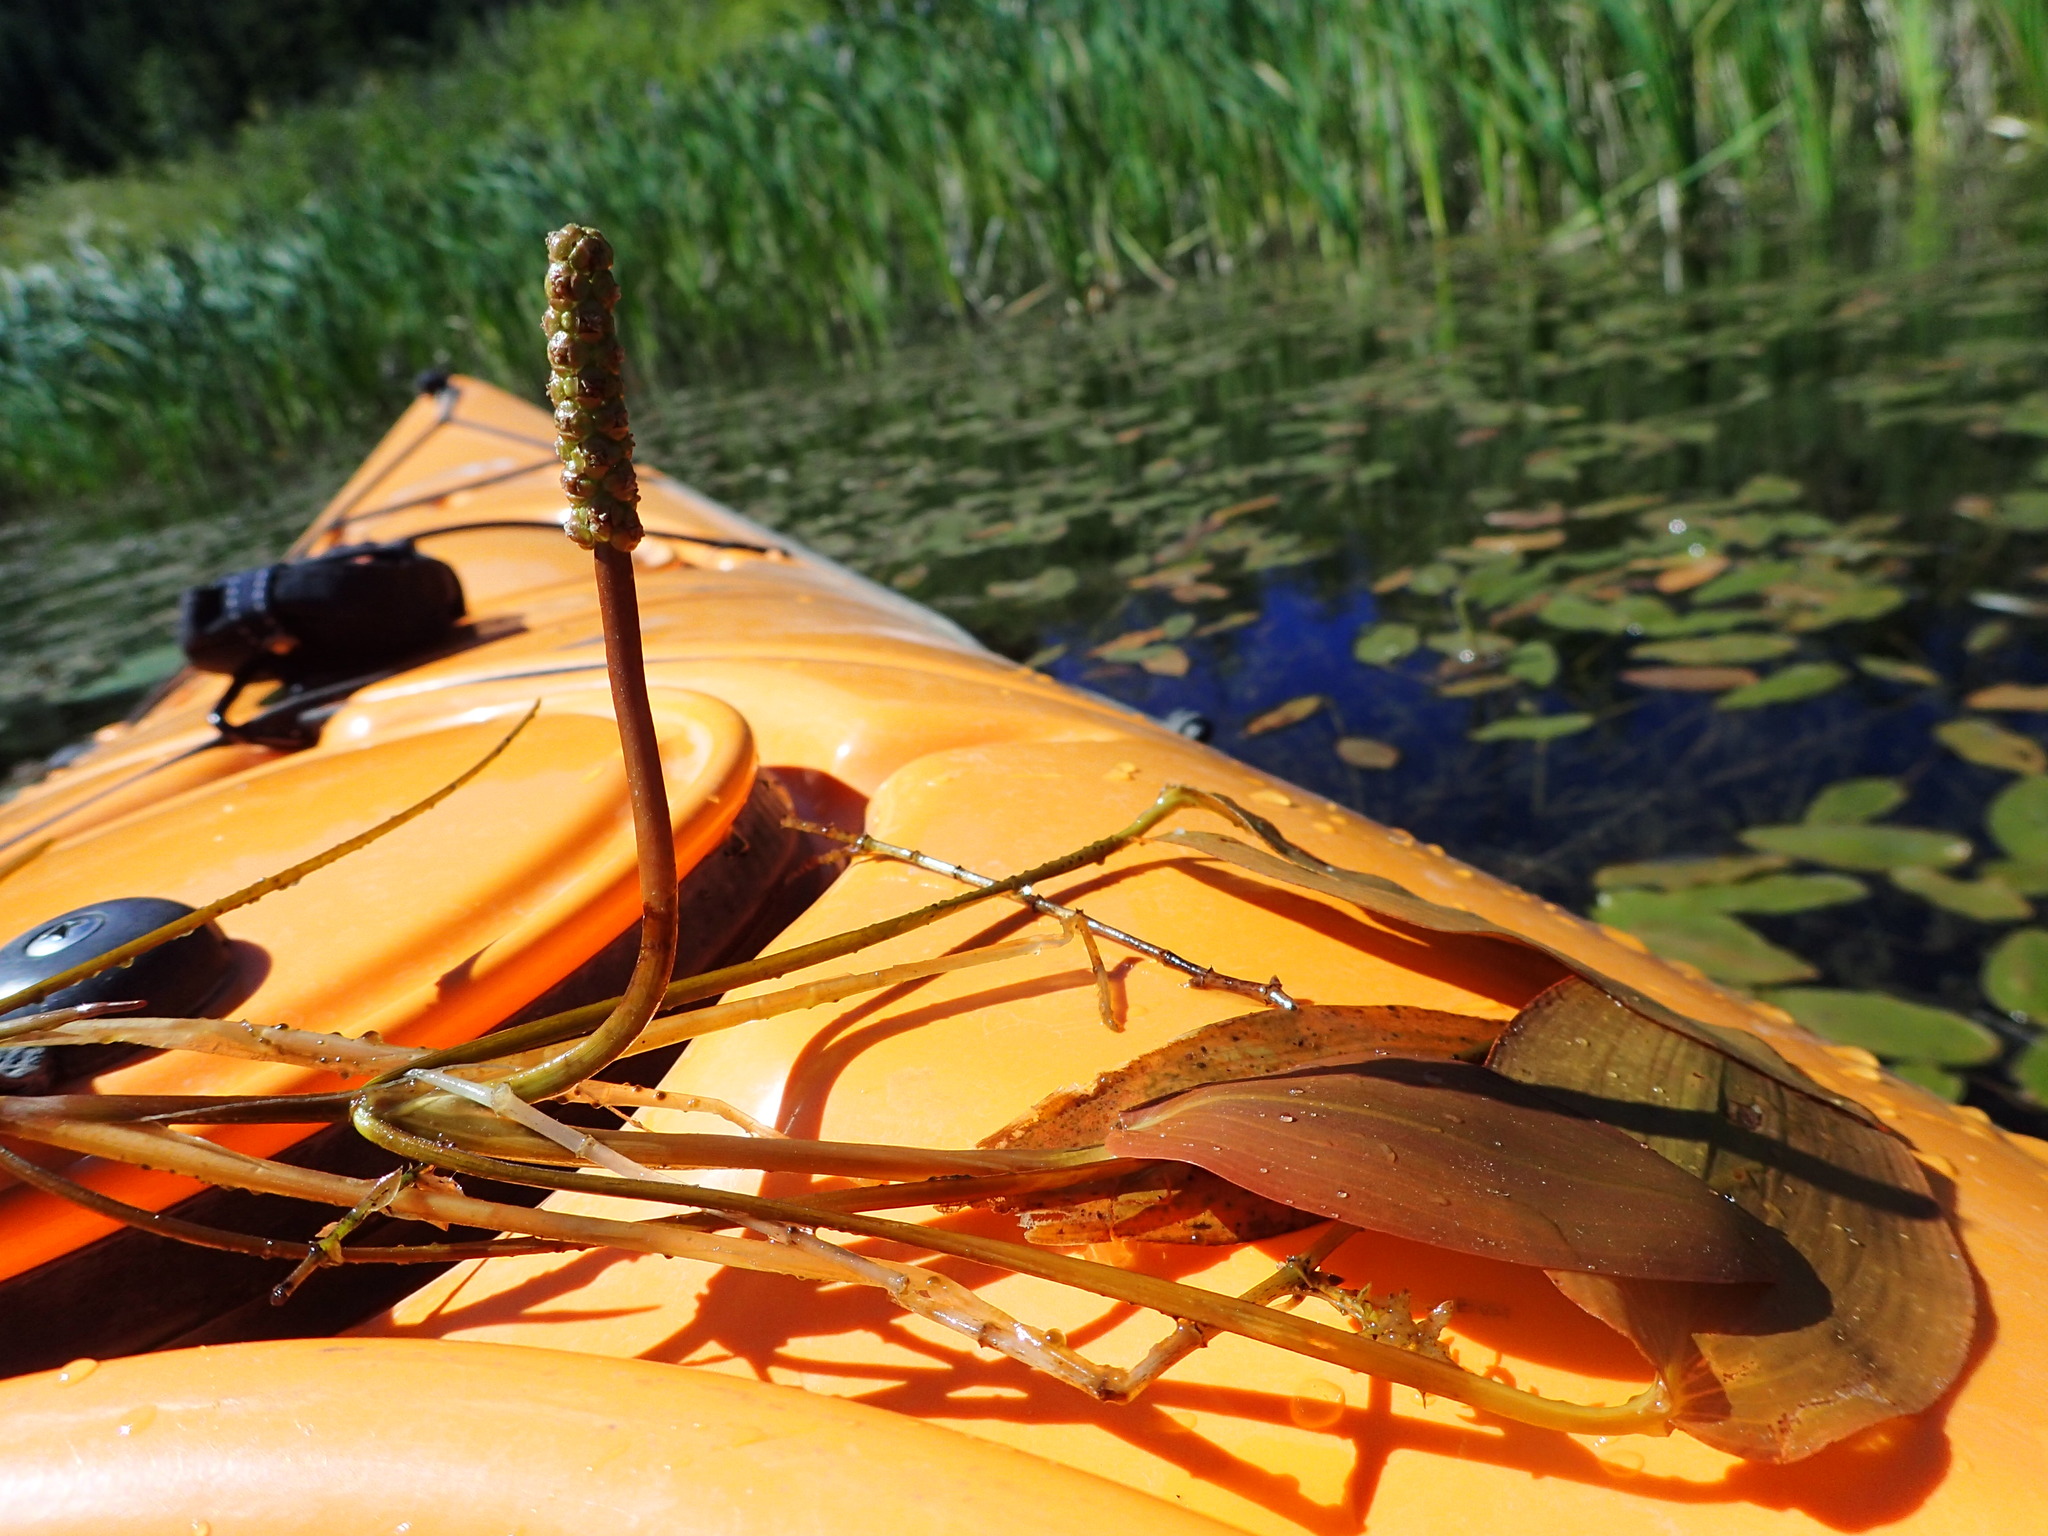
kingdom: Plantae
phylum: Tracheophyta
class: Liliopsida
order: Alismatales
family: Potamogetonaceae
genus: Potamogeton
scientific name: Potamogeton natans
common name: Broad-leaved pondweed
